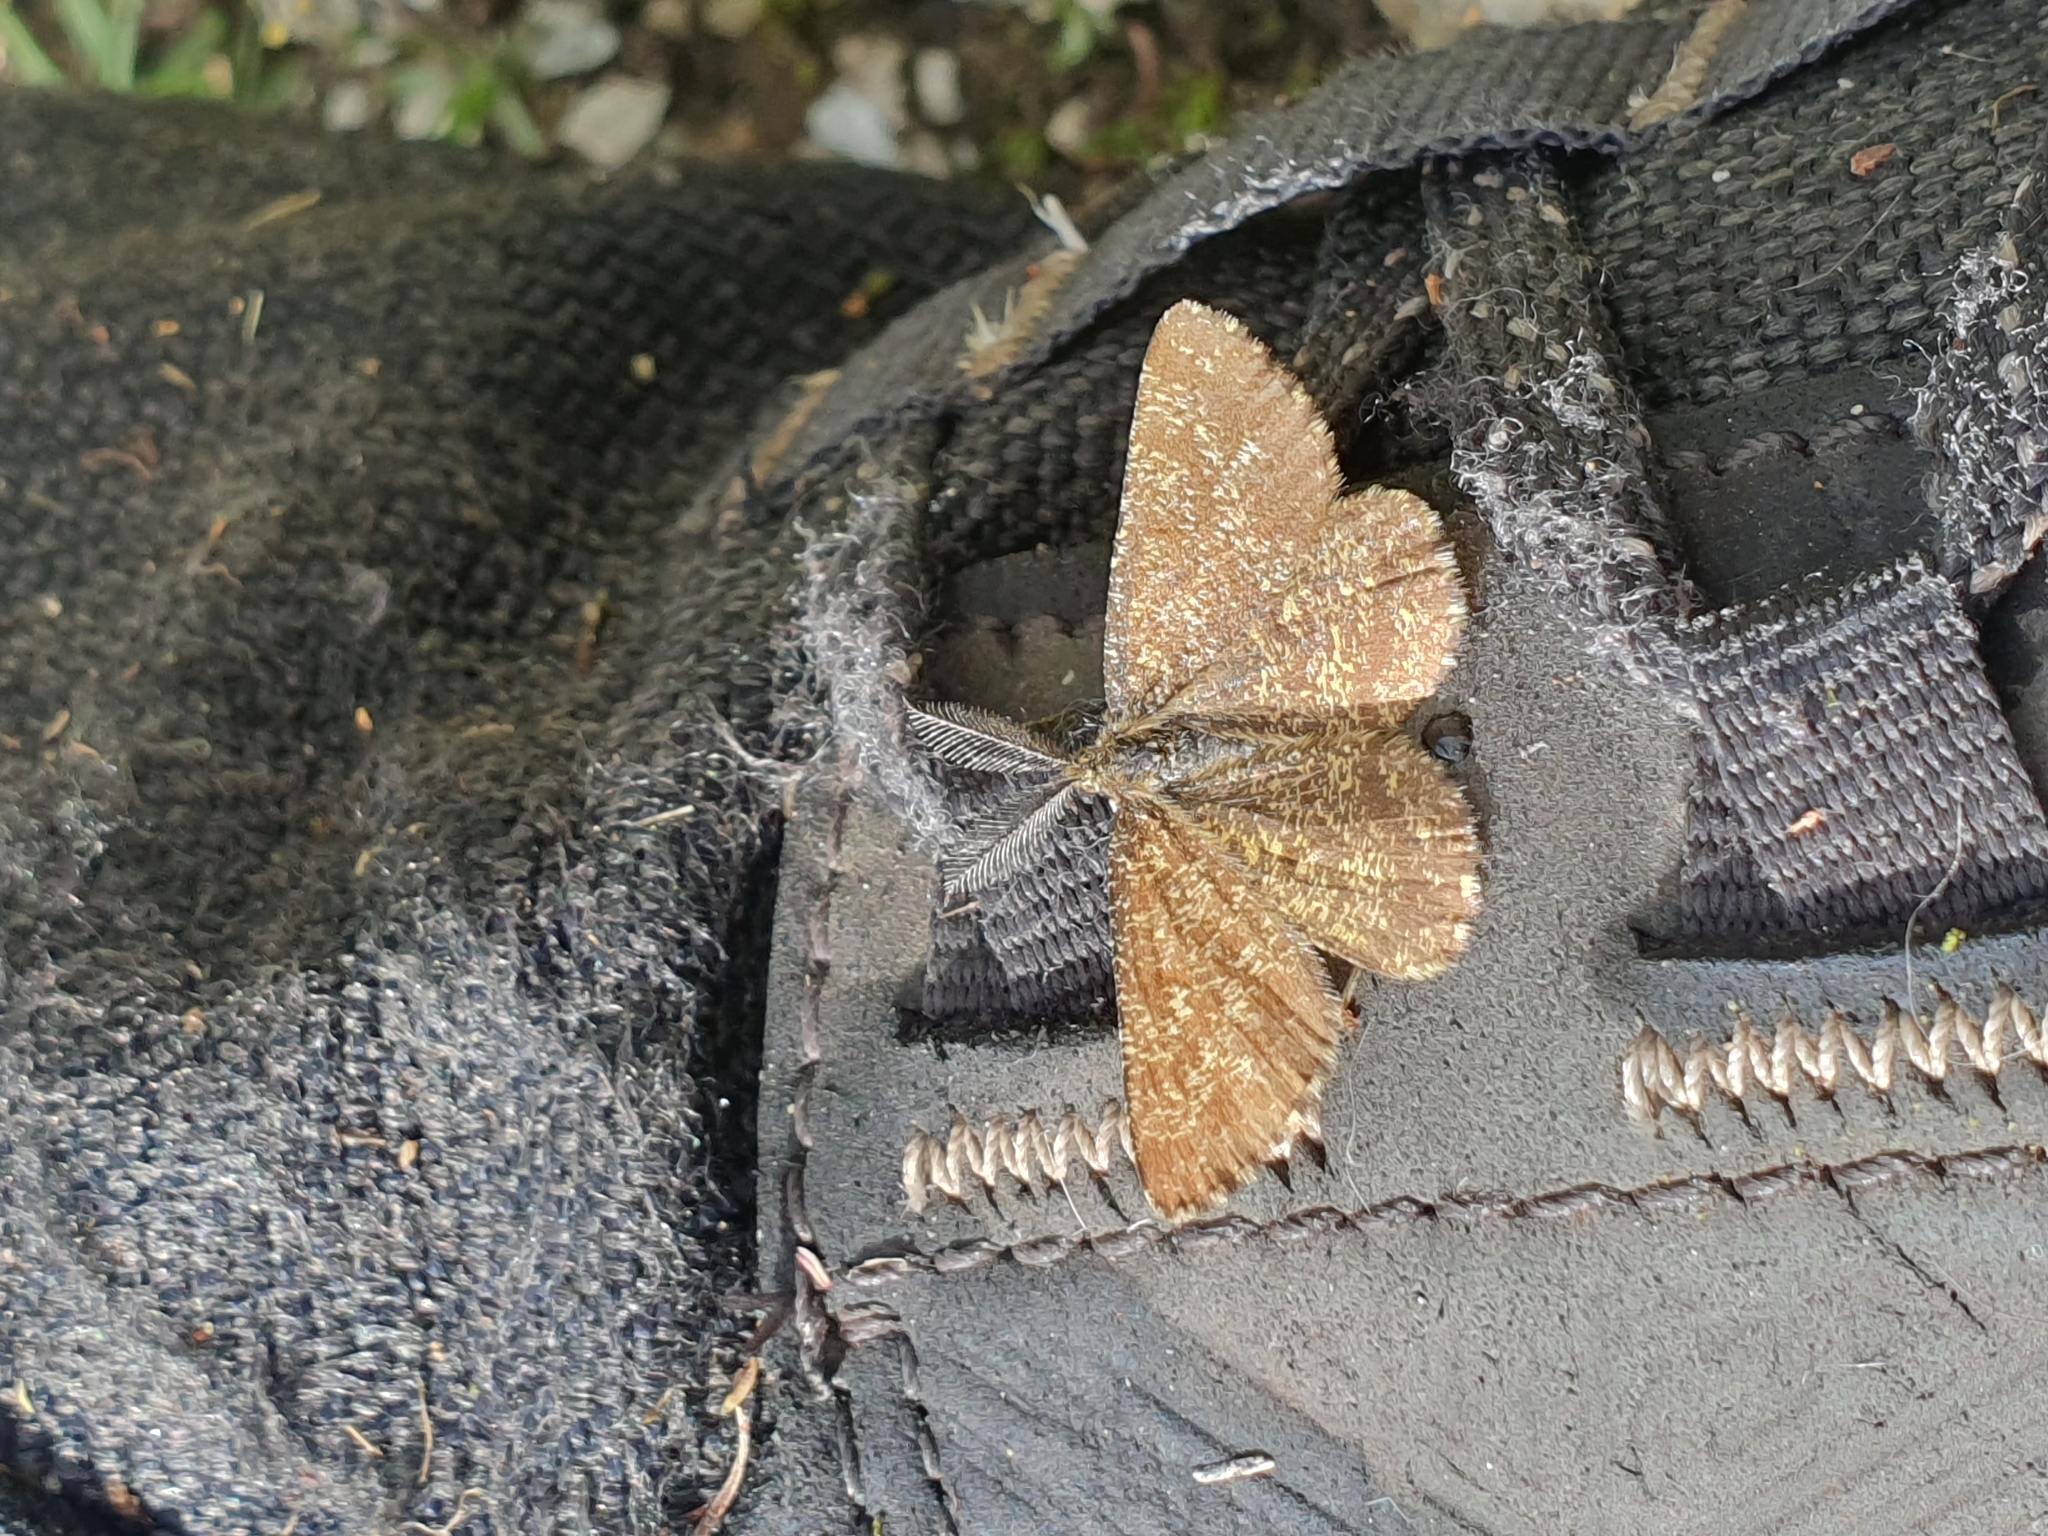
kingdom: Animalia
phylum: Arthropoda
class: Insecta
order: Lepidoptera
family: Geometridae
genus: Ematurga
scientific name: Ematurga atomaria
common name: Common heath
